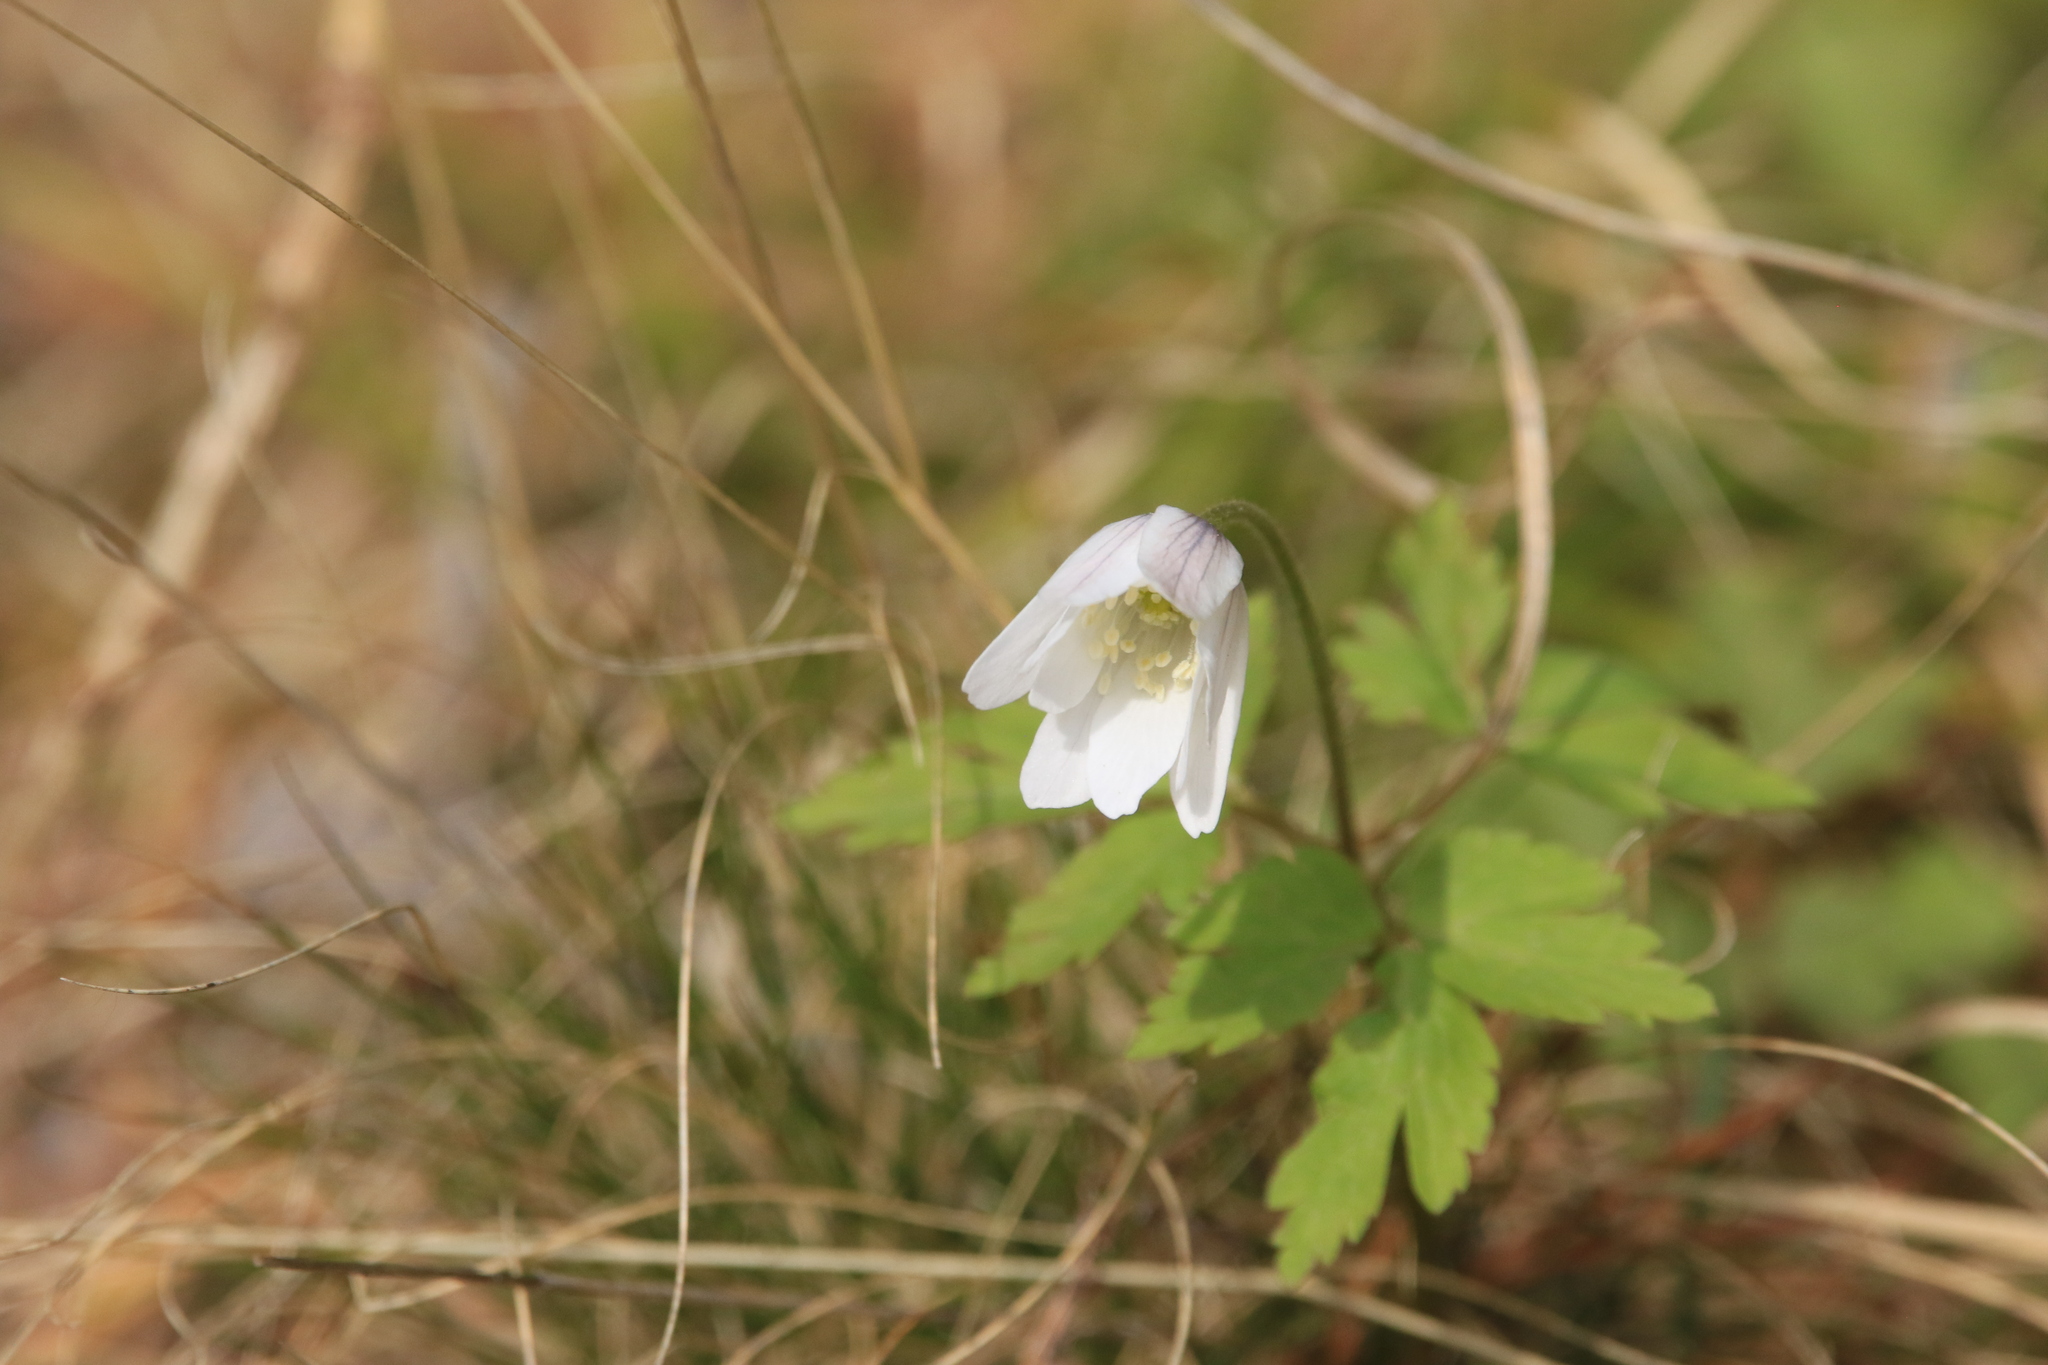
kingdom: Plantae
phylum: Tracheophyta
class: Magnoliopsida
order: Ranunculales
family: Ranunculaceae
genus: Anemone
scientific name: Anemone altaica
